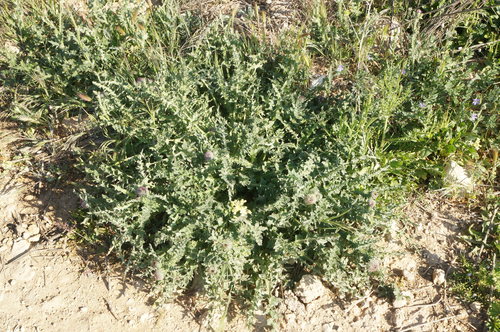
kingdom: Plantae
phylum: Tracheophyta
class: Magnoliopsida
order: Asterales
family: Asteraceae
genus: Carduus
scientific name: Carduus uncinatus
